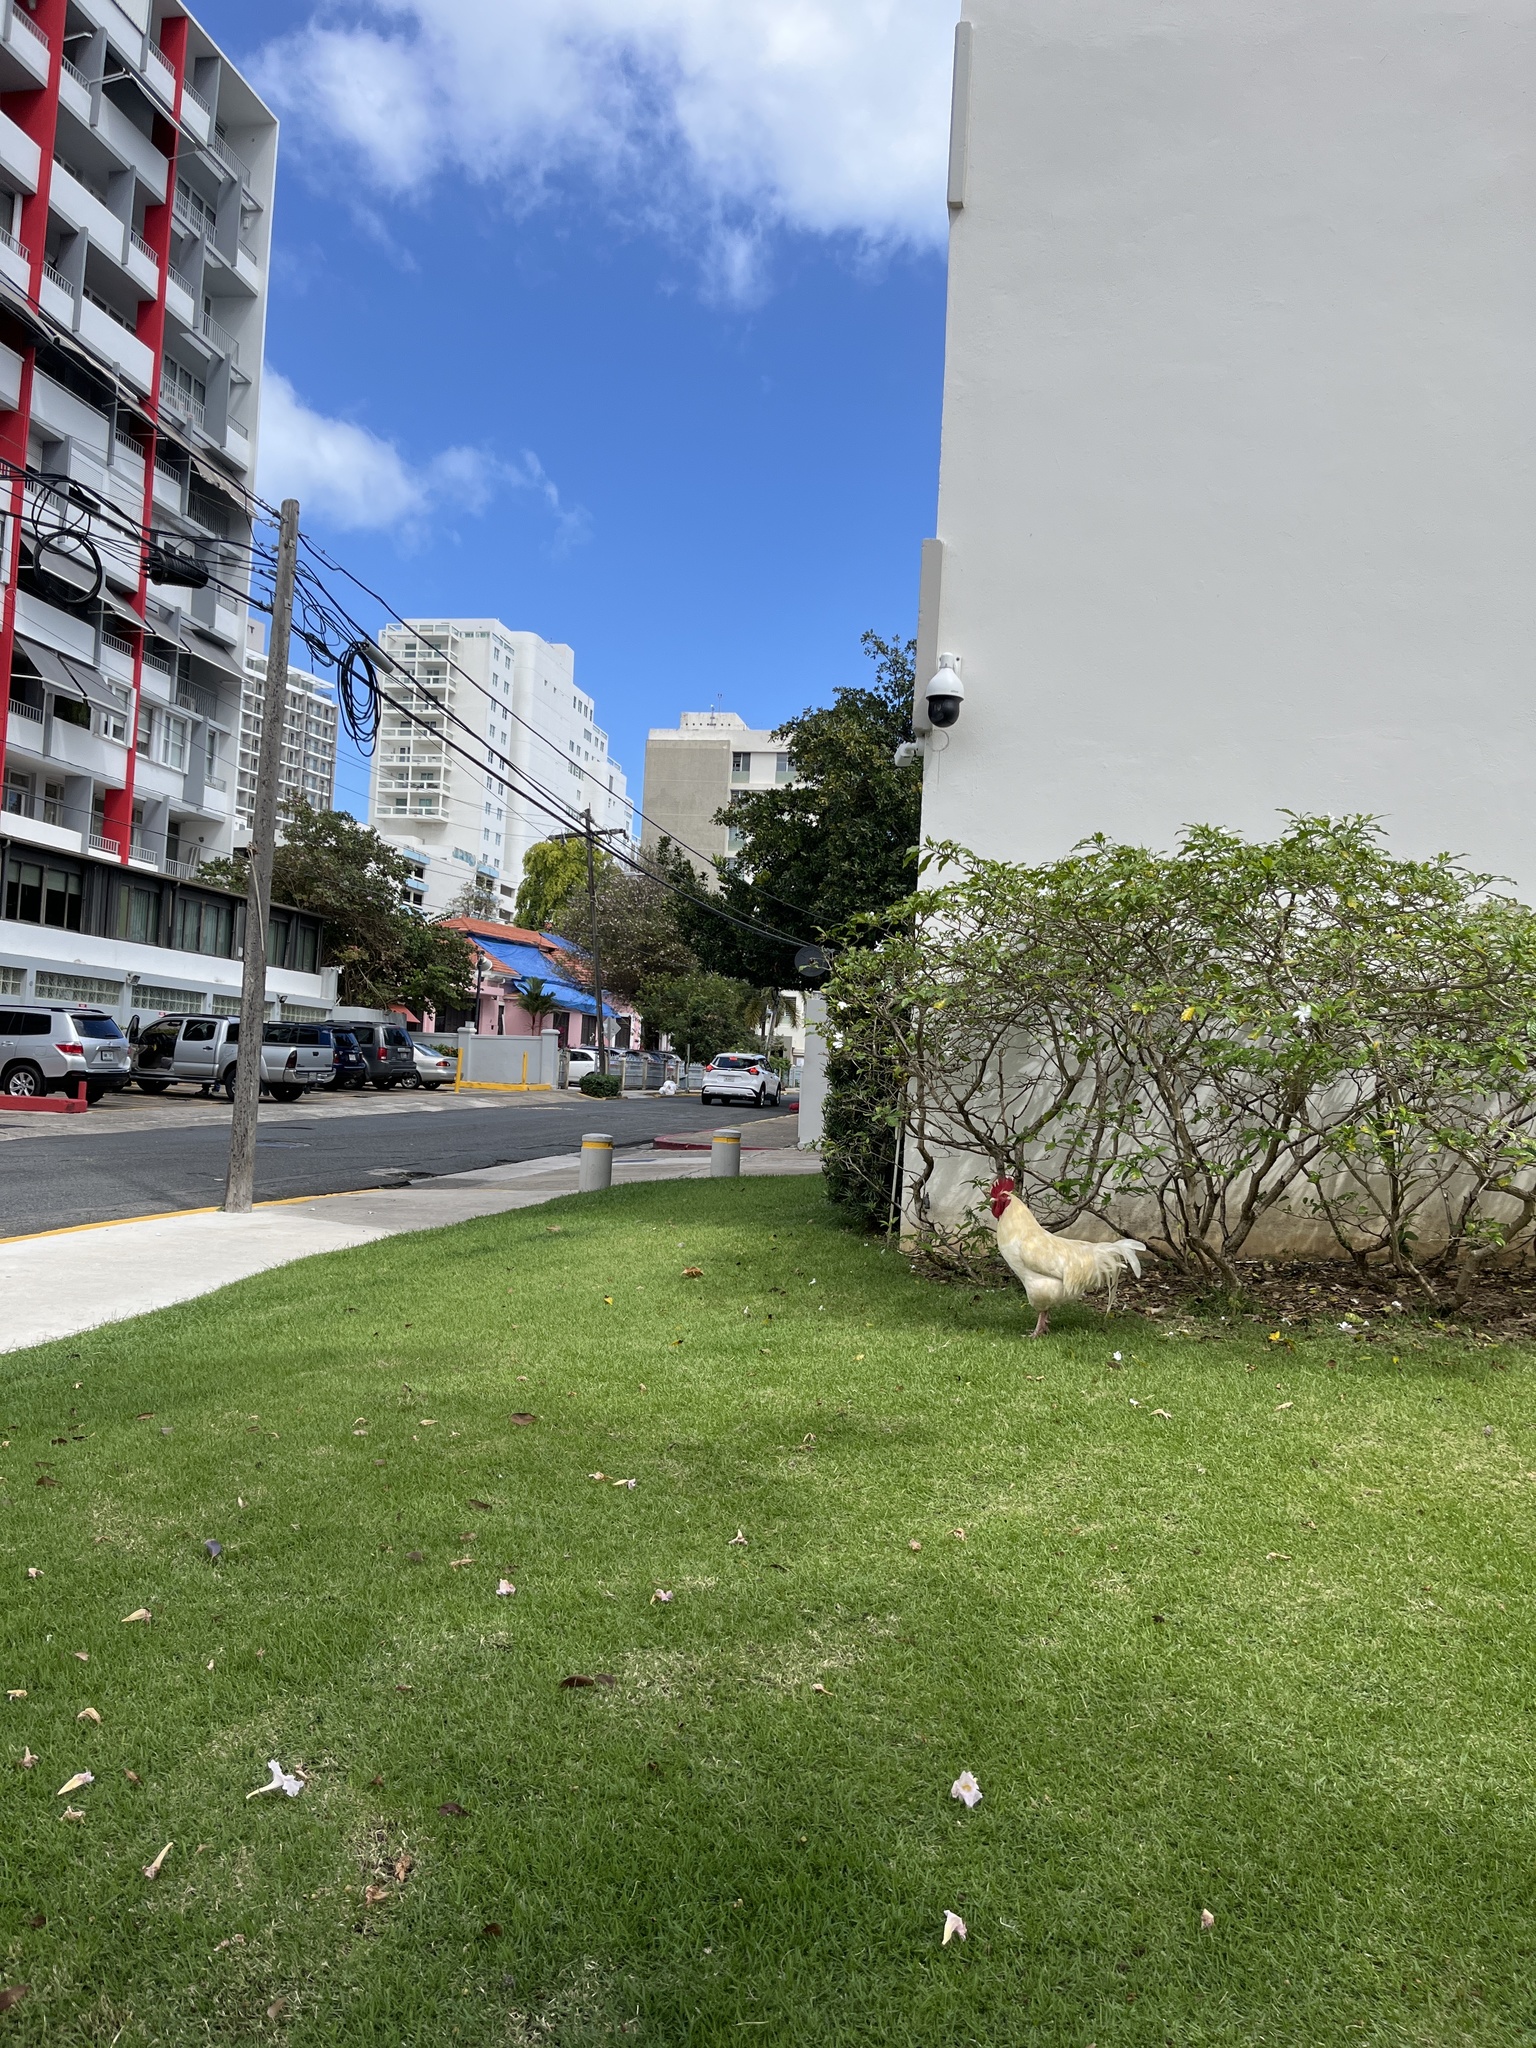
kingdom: Animalia
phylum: Chordata
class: Aves
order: Galliformes
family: Phasianidae
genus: Gallus
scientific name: Gallus gallus
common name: Red junglefowl
